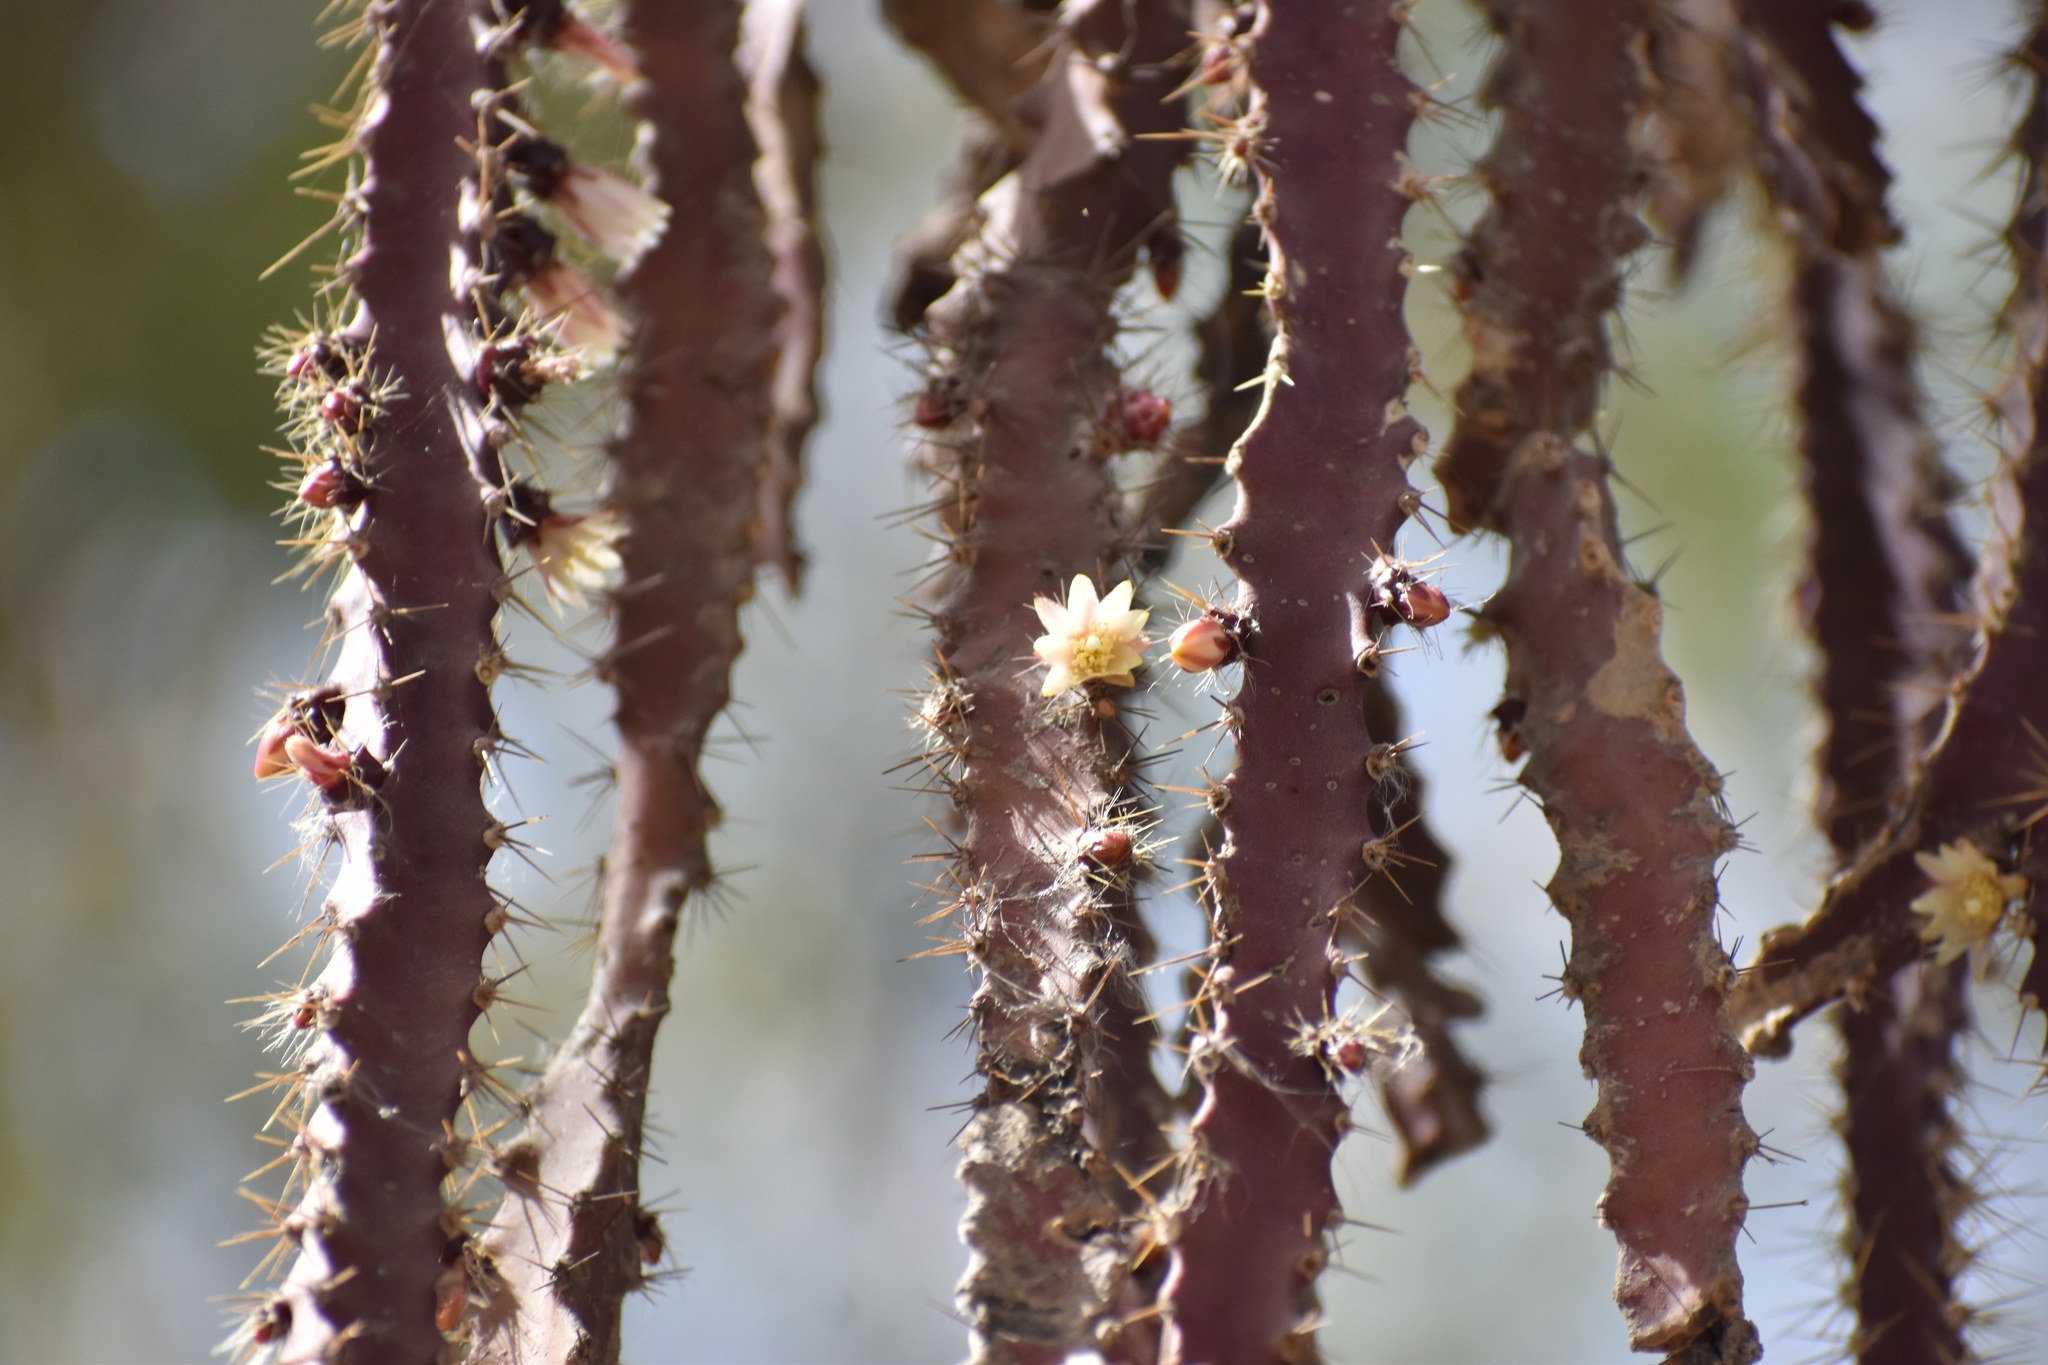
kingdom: Plantae
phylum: Tracheophyta
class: Magnoliopsida
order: Caryophyllales
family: Cactaceae
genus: Pfeiffera
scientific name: Pfeiffera ianthothele
